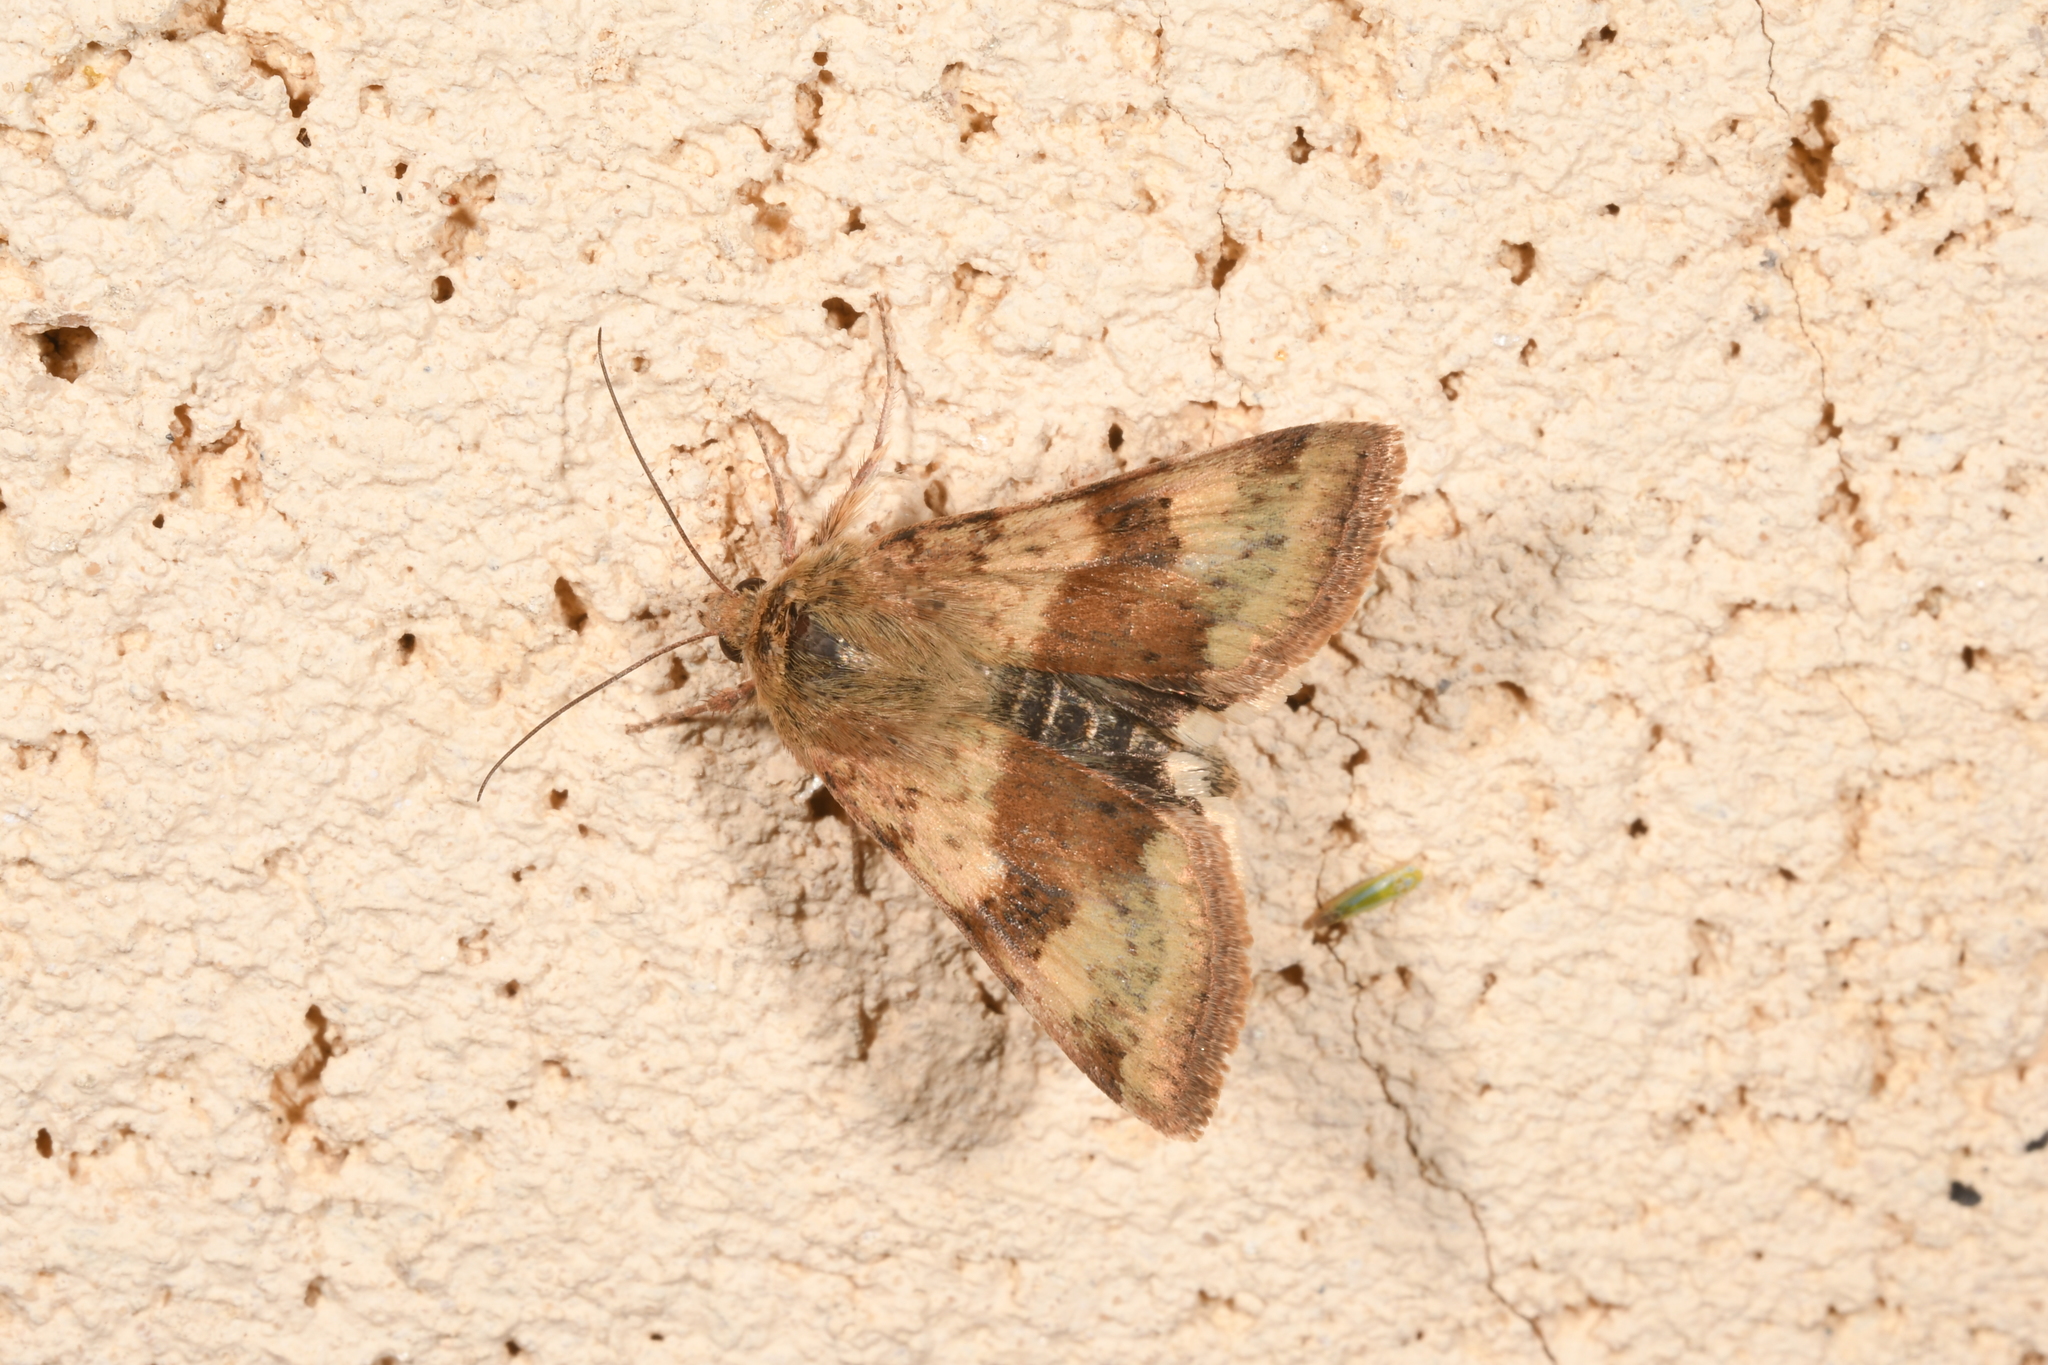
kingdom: Animalia
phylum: Arthropoda
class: Insecta
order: Lepidoptera
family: Noctuidae
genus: Heliothis
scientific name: Heliothis viriplaca
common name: Marbled clover
